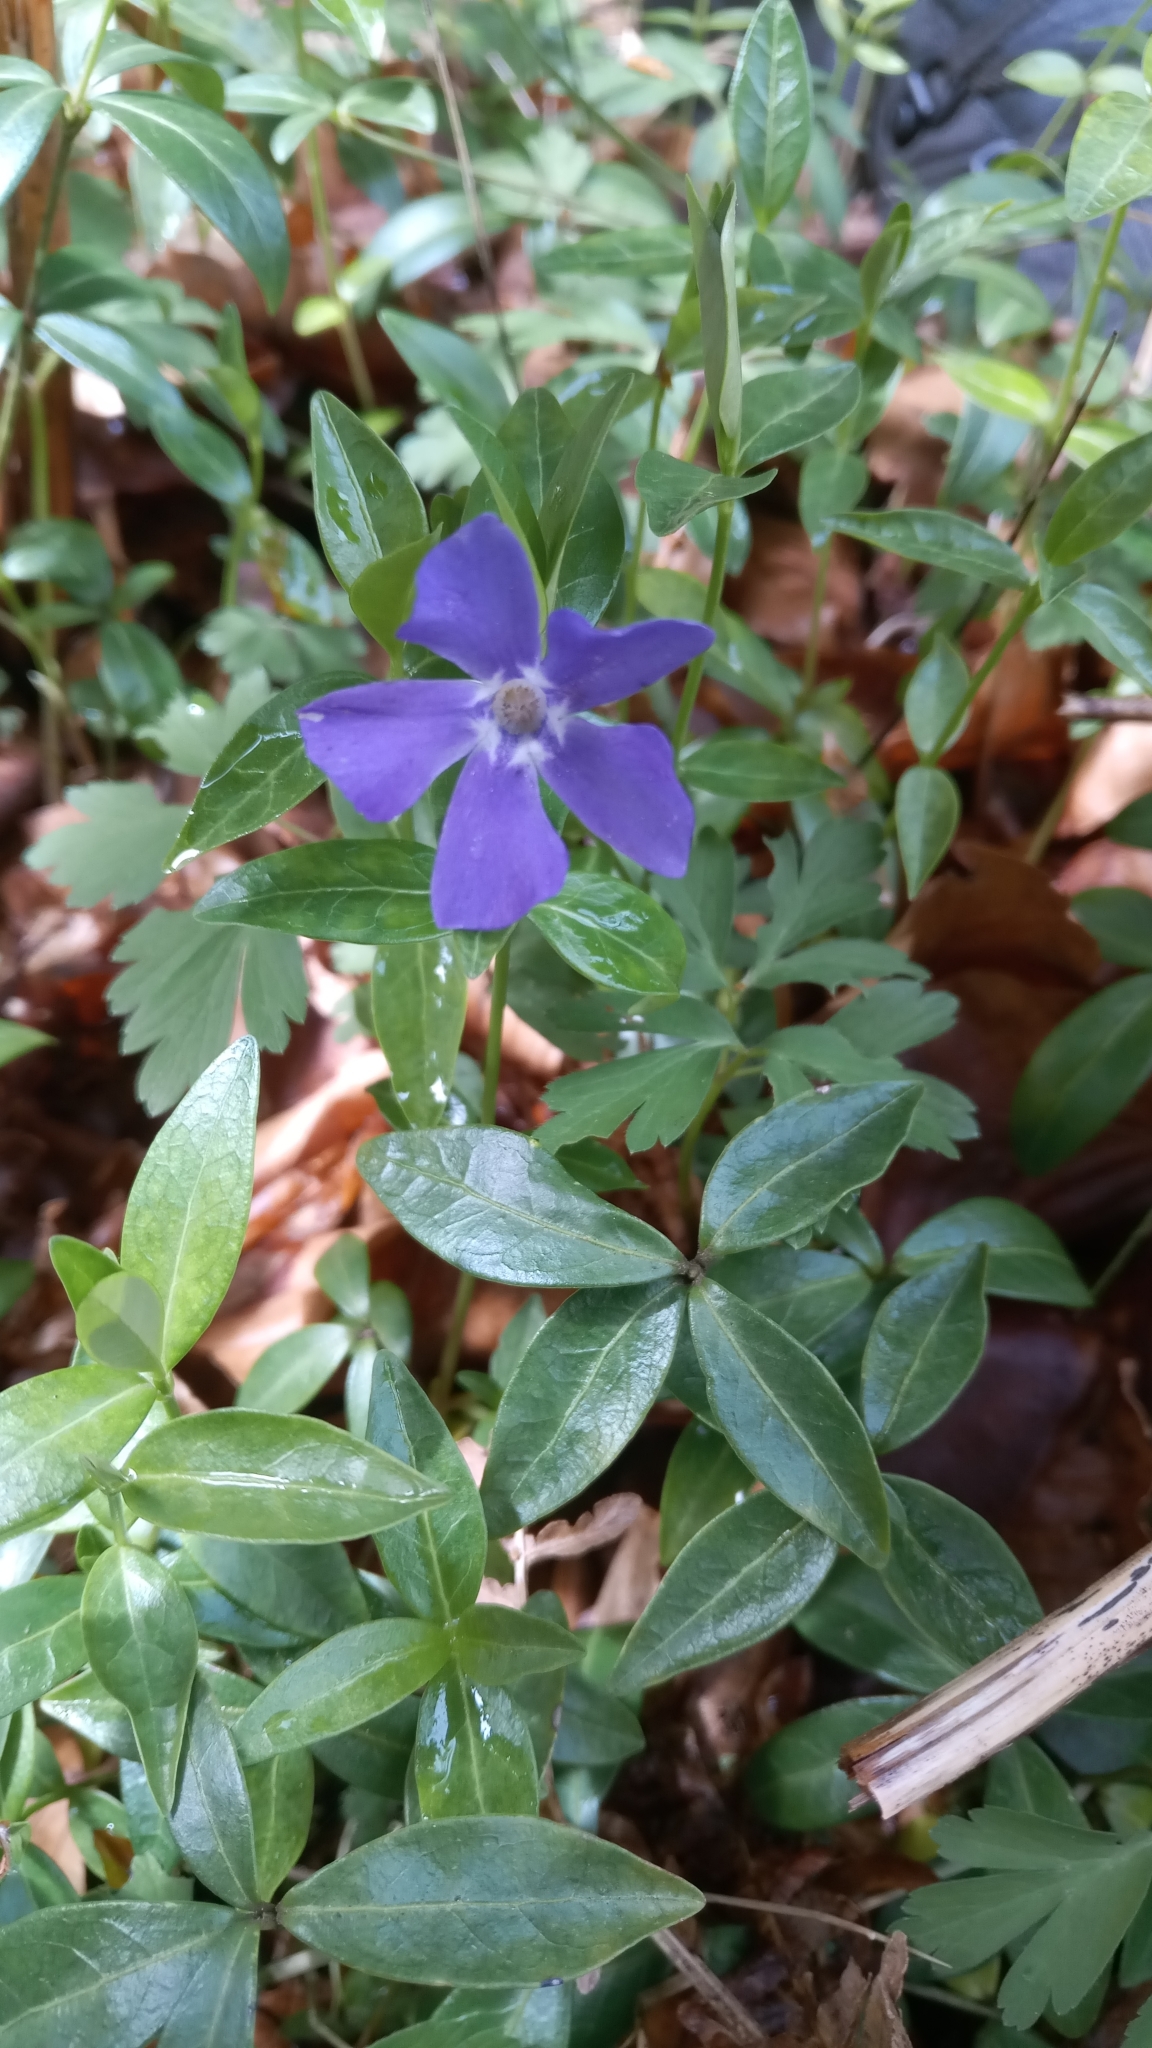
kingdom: Plantae
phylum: Tracheophyta
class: Magnoliopsida
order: Gentianales
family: Apocynaceae
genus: Vinca
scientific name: Vinca minor
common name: Lesser periwinkle
